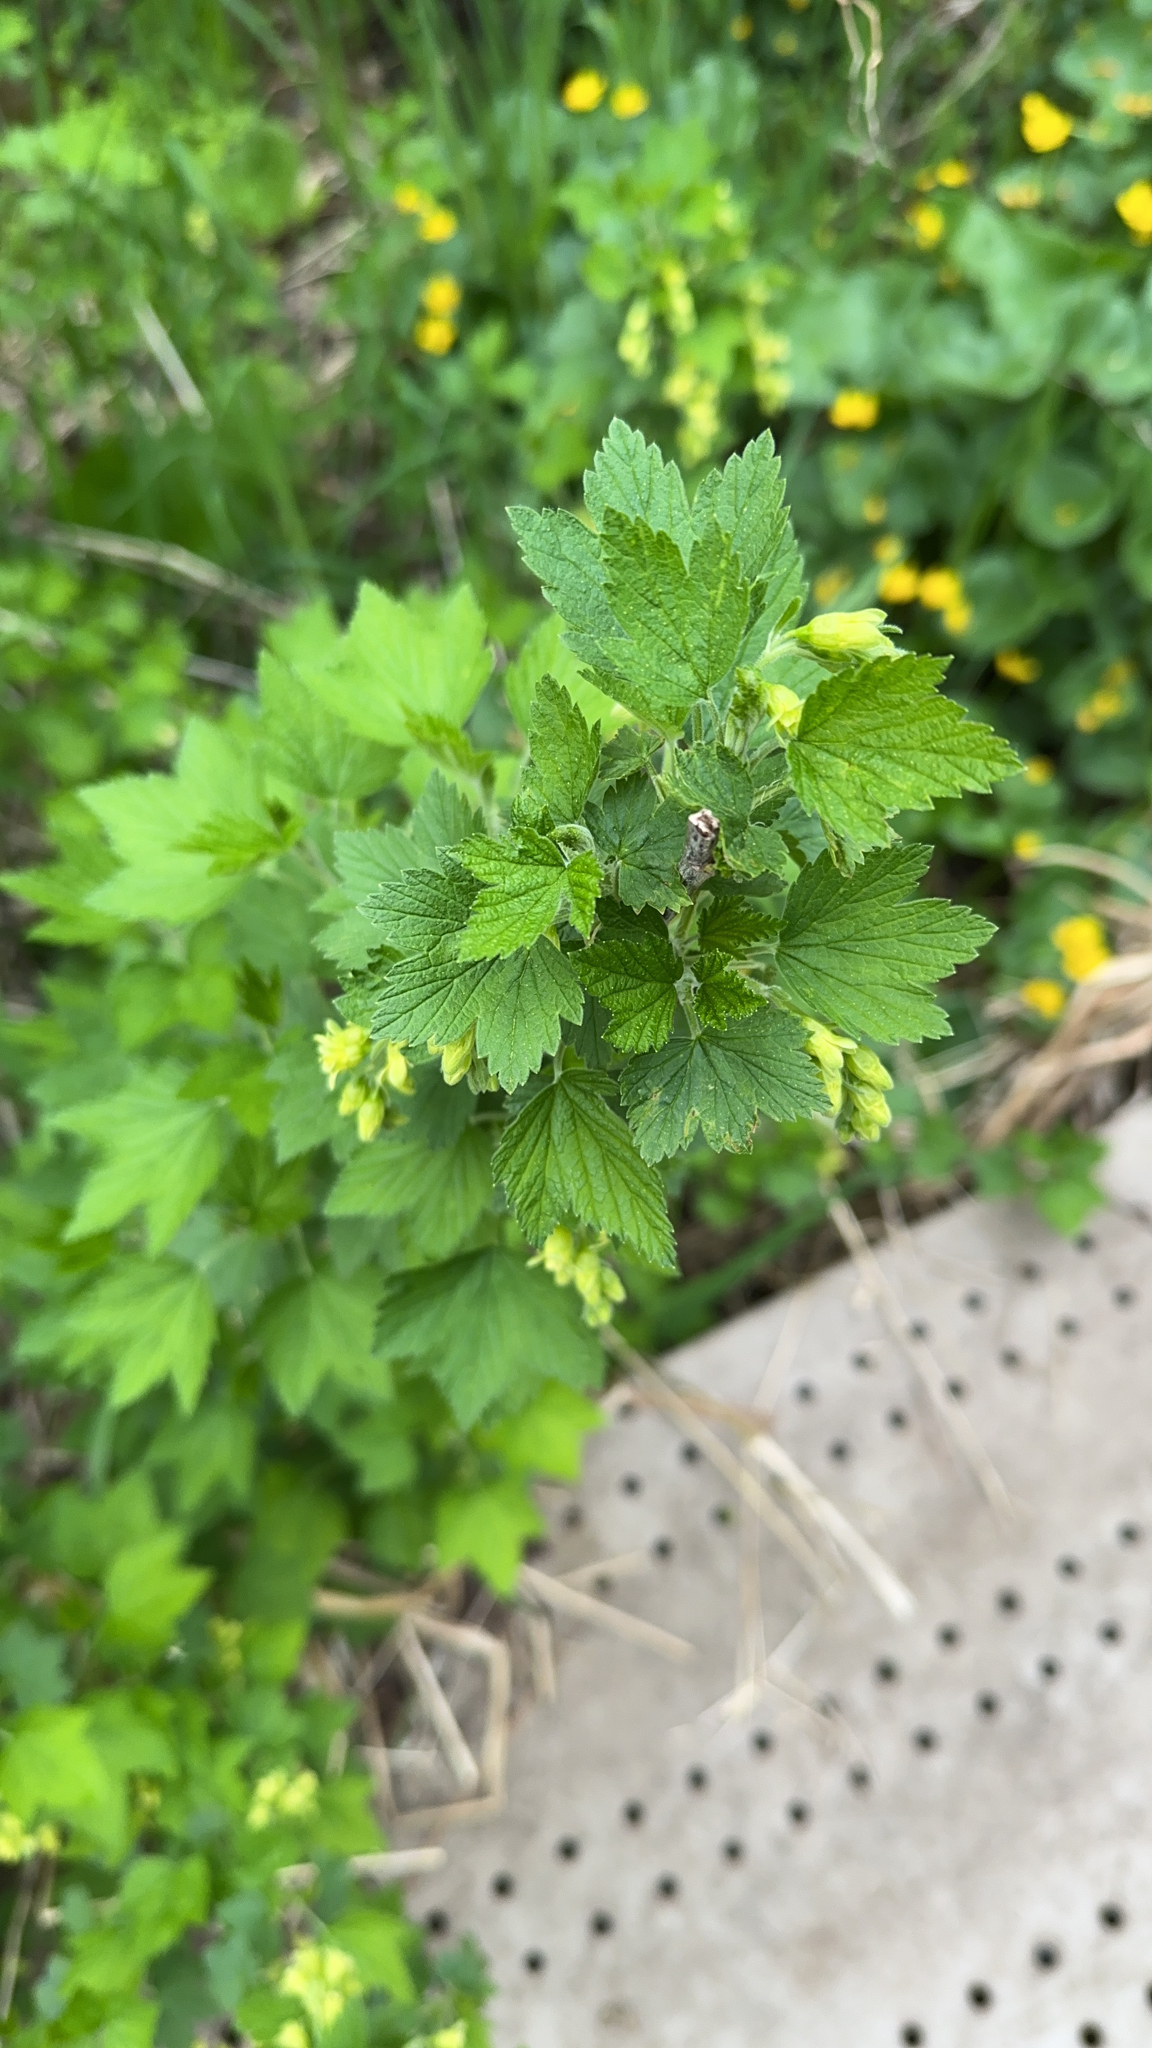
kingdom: Plantae
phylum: Tracheophyta
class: Magnoliopsida
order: Saxifragales
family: Grossulariaceae
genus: Ribes
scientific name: Ribes americanum
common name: American black currant
